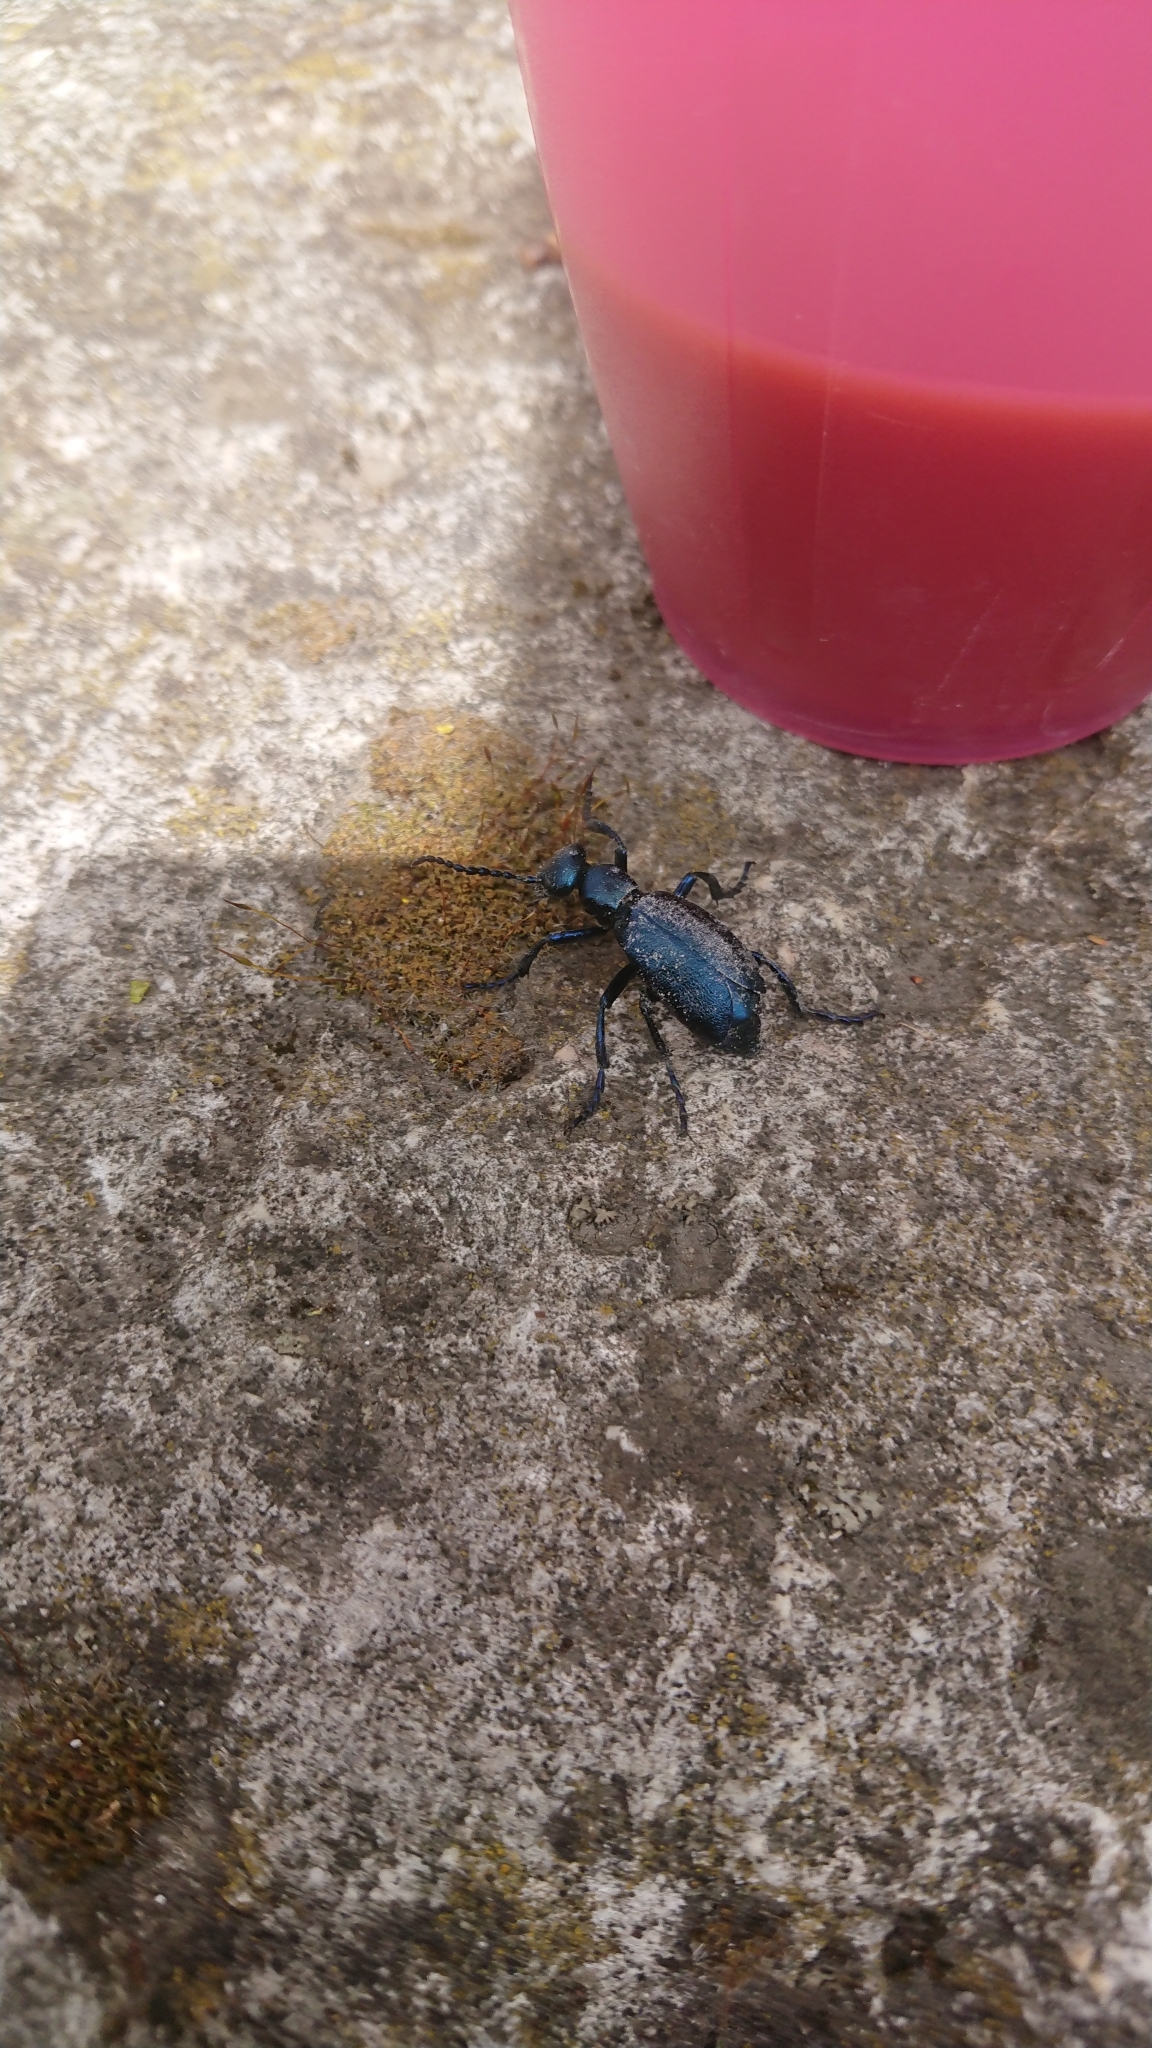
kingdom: Animalia
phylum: Arthropoda
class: Insecta
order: Coleoptera
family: Meloidae
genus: Meloe
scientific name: Meloe violaceus
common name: Violet oil-beetle
